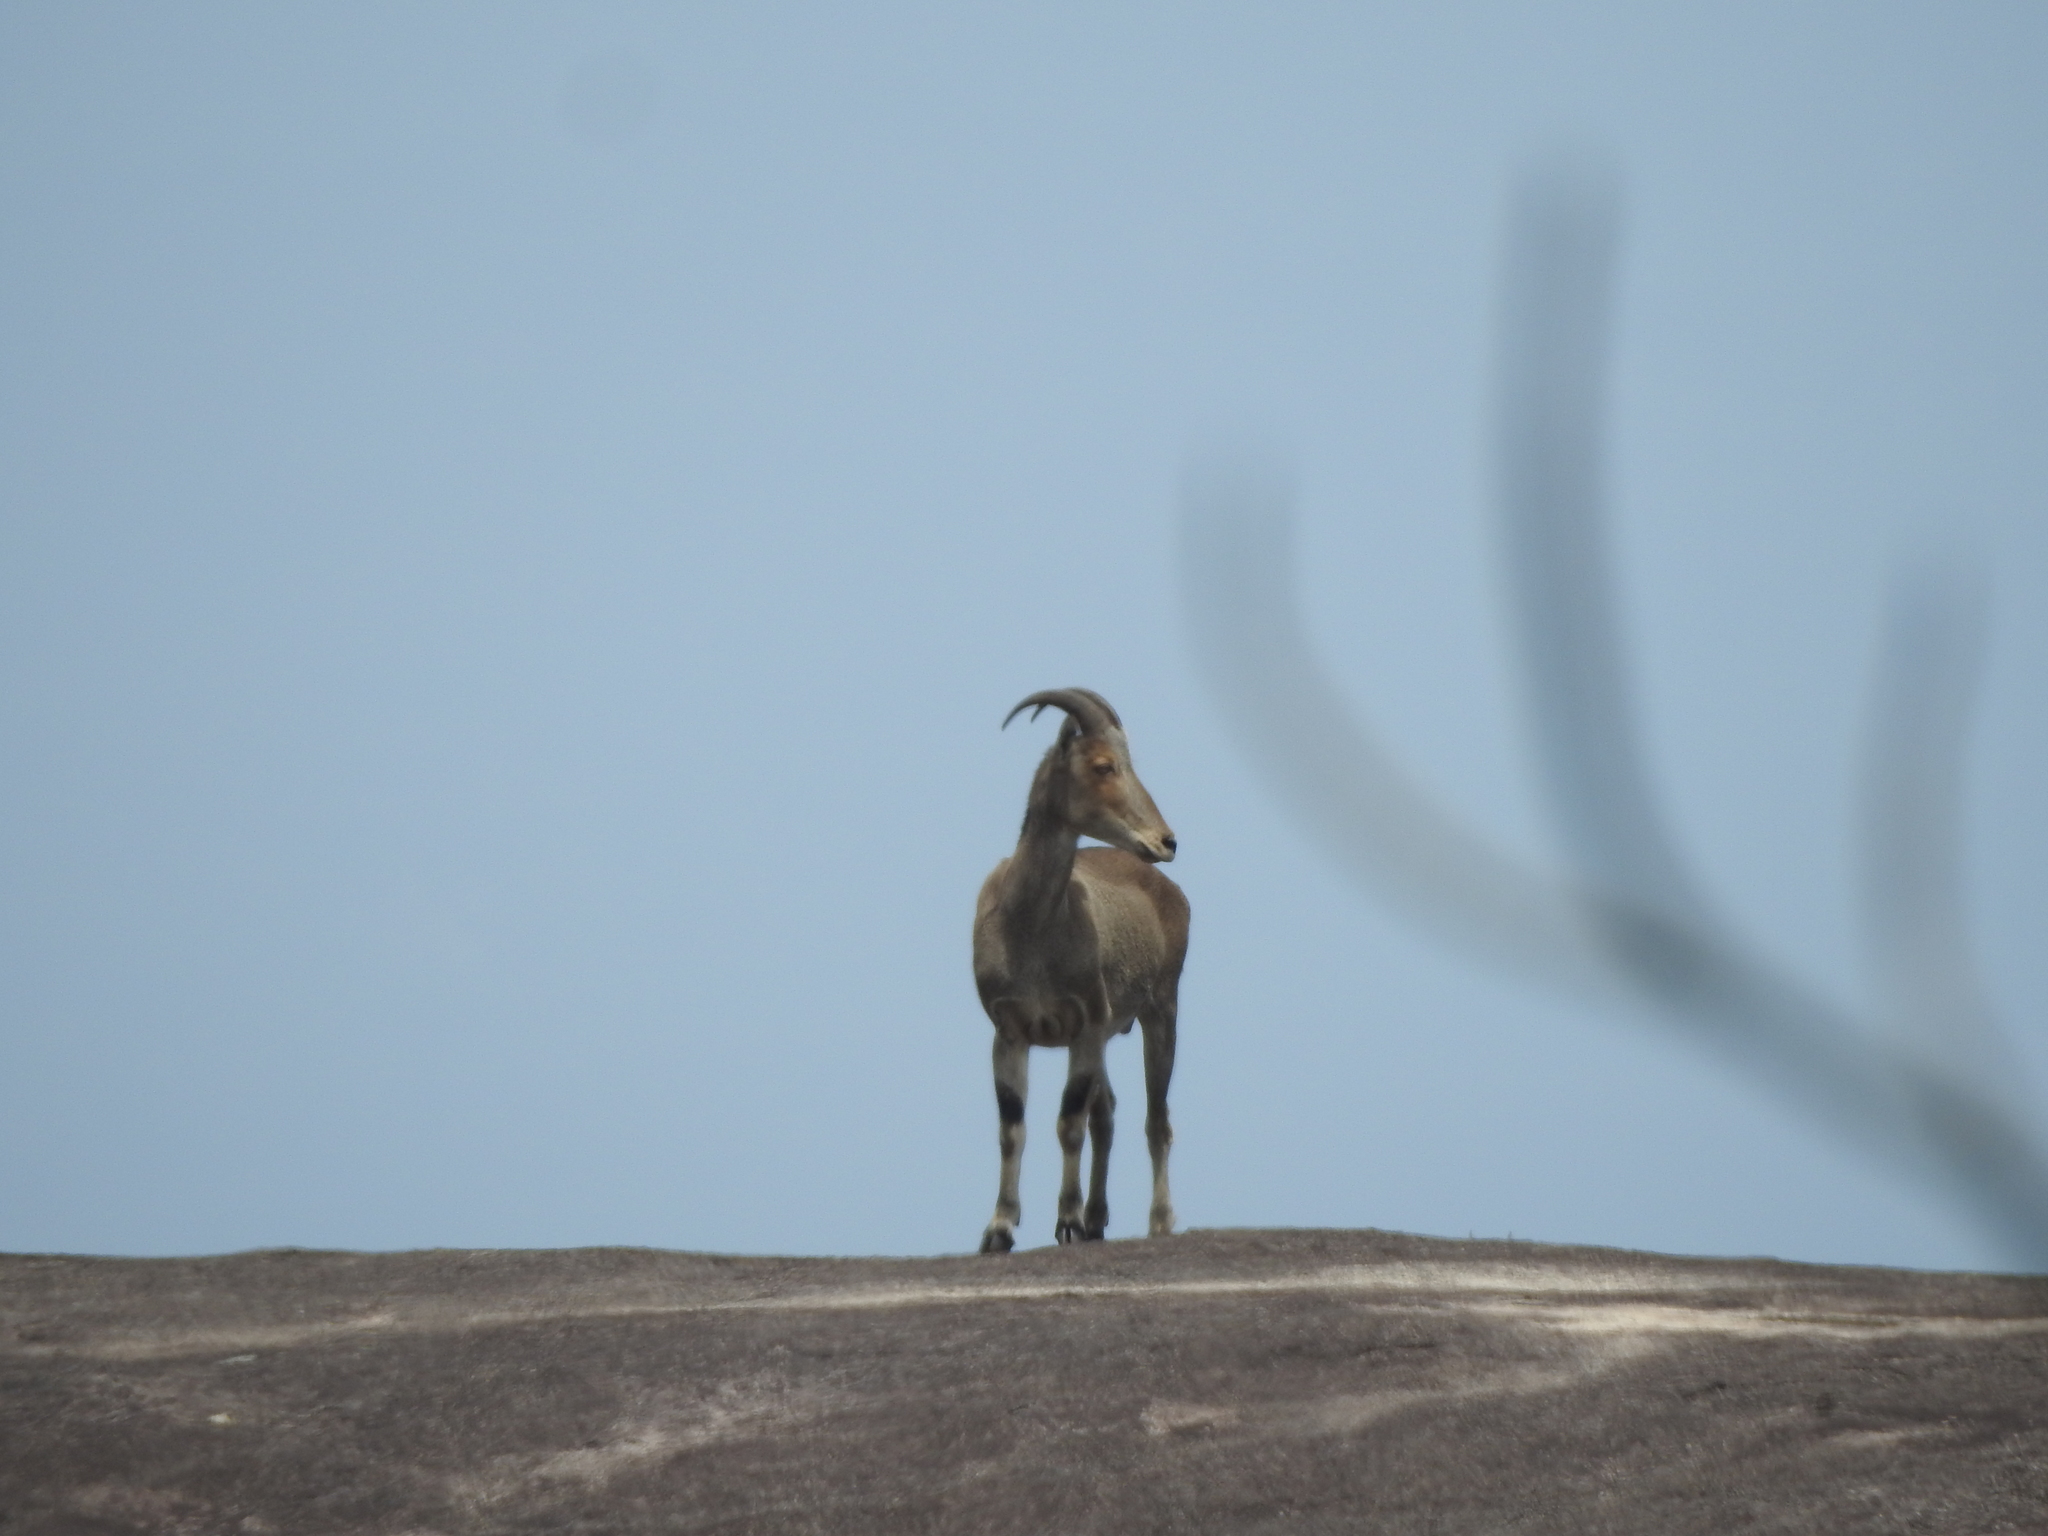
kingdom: Animalia
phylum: Chordata
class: Mammalia
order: Artiodactyla
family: Bovidae
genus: Hemitragus
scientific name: Hemitragus hylocrius
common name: Nilgiri tahr
